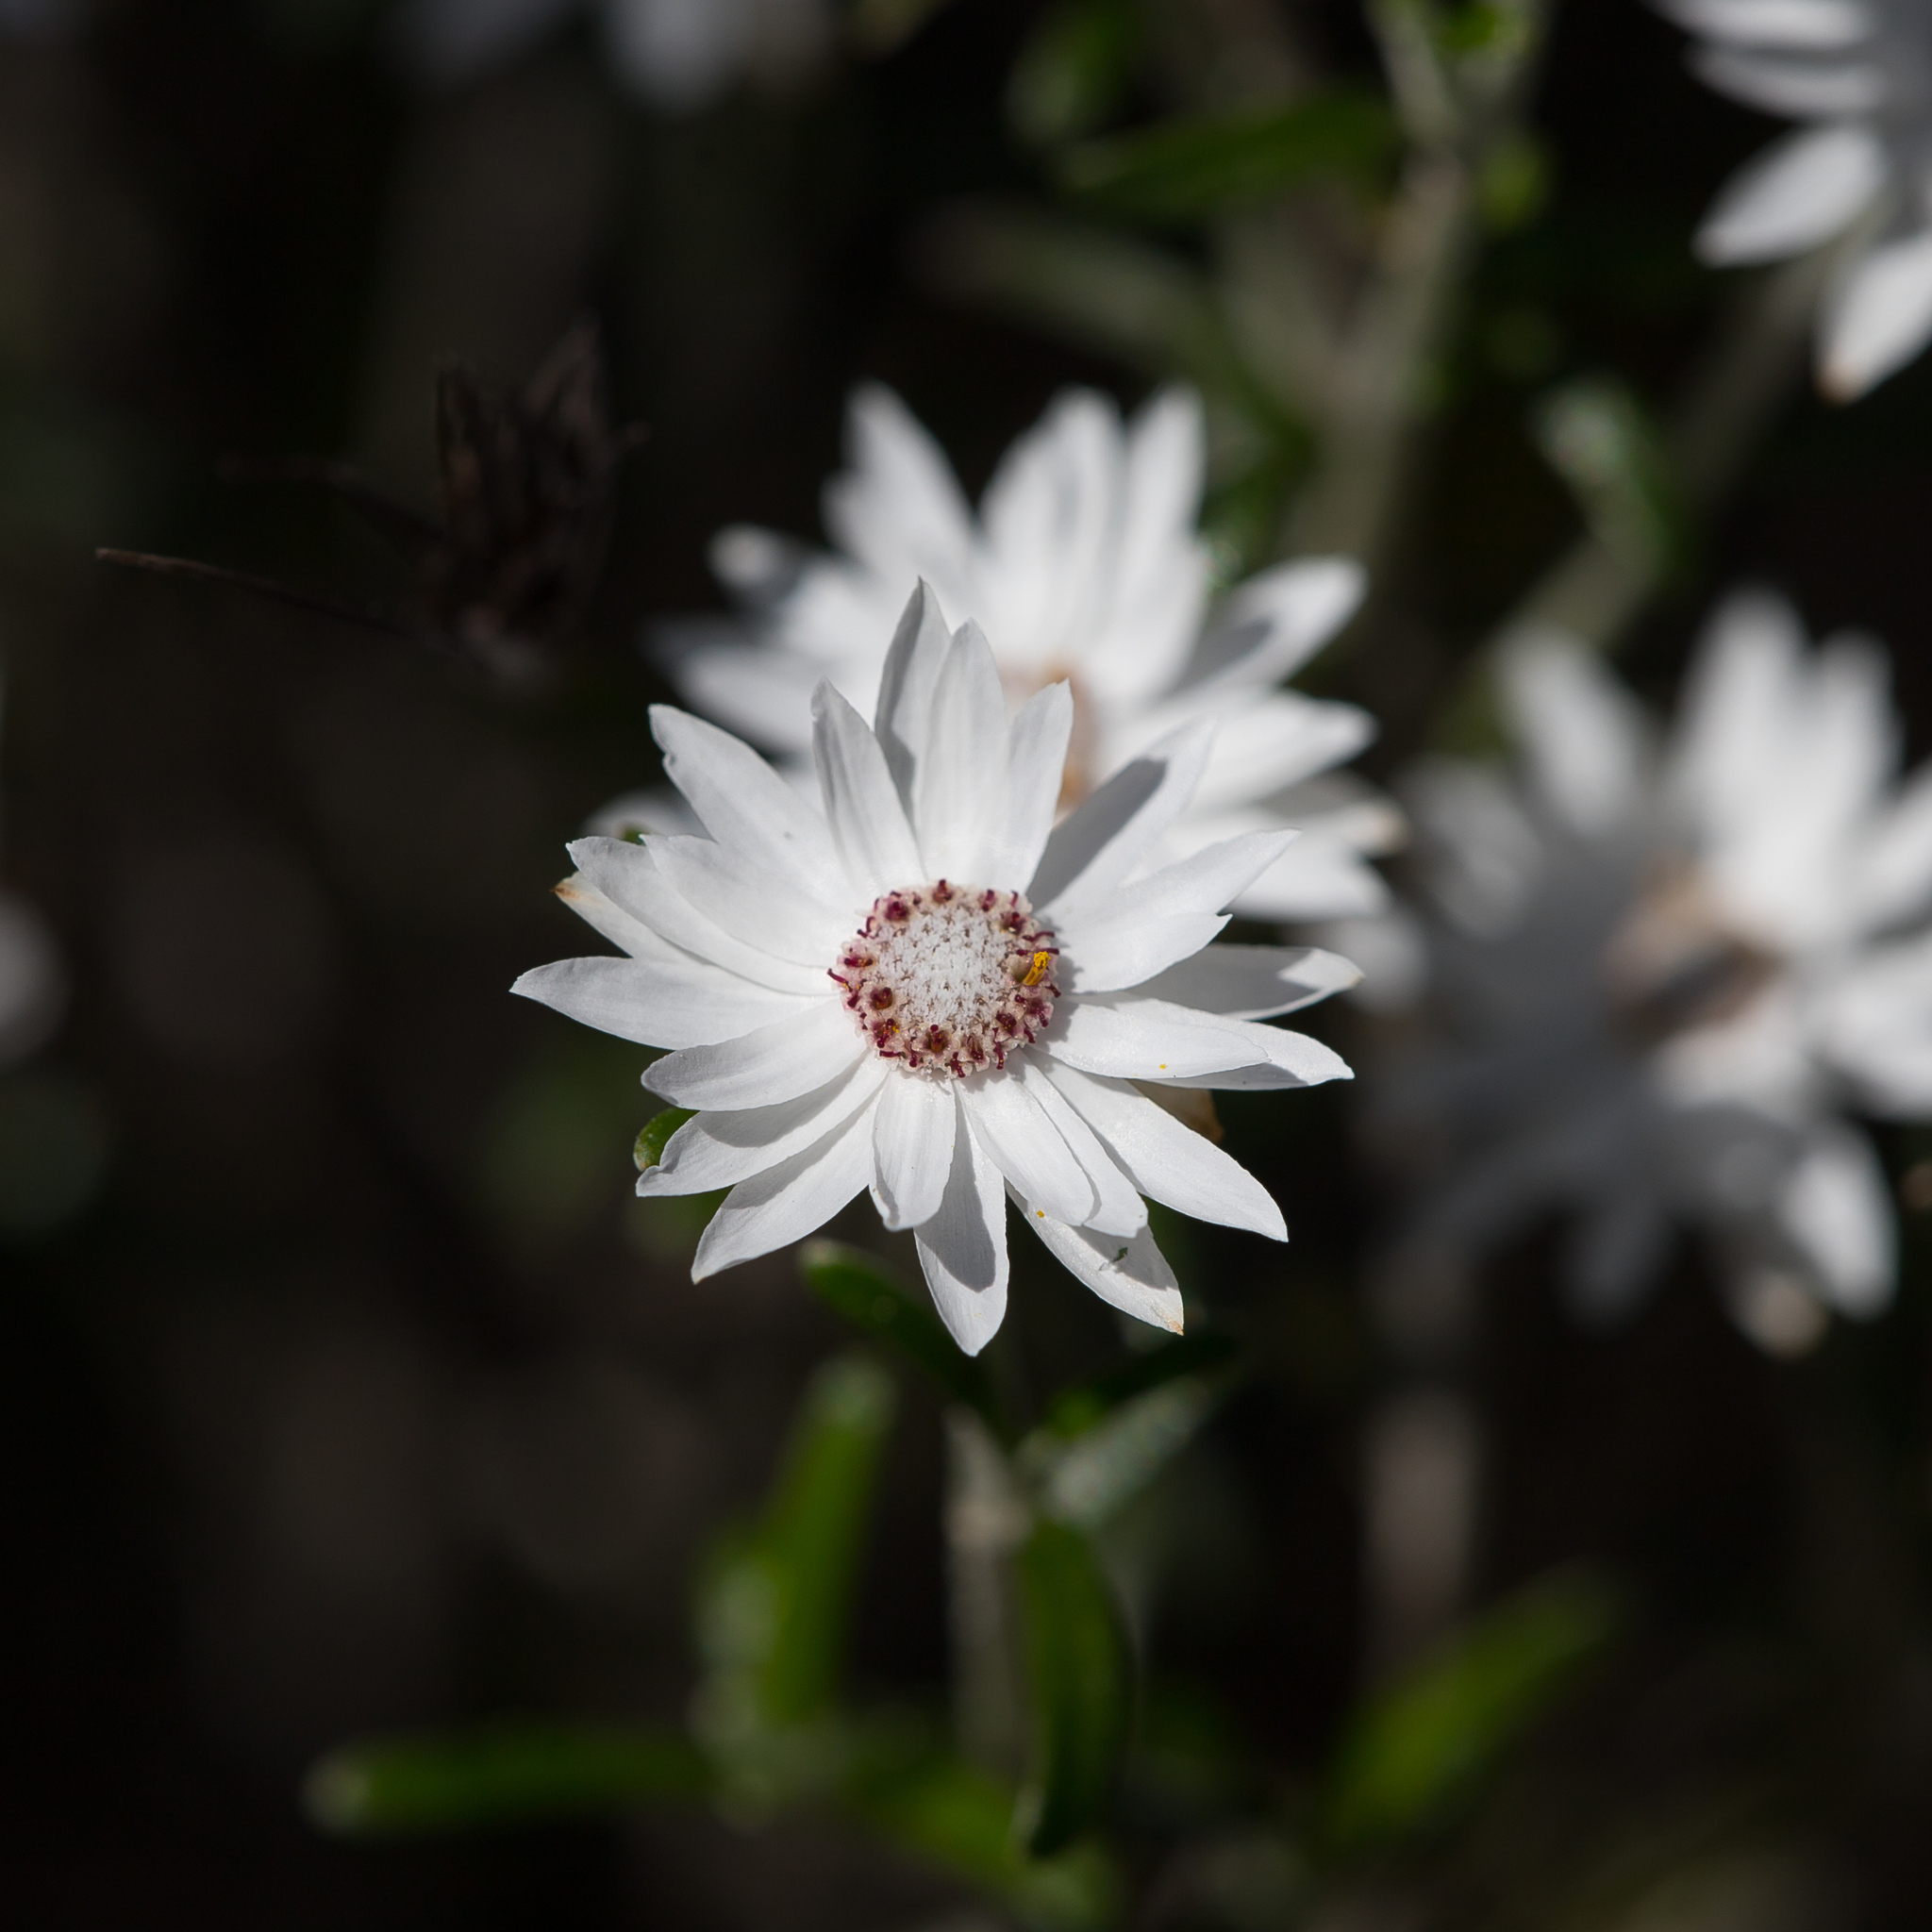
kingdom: Plantae
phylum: Tracheophyta
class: Magnoliopsida
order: Asterales
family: Asteraceae
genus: Argentipallium
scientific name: Argentipallium obtusifolium
